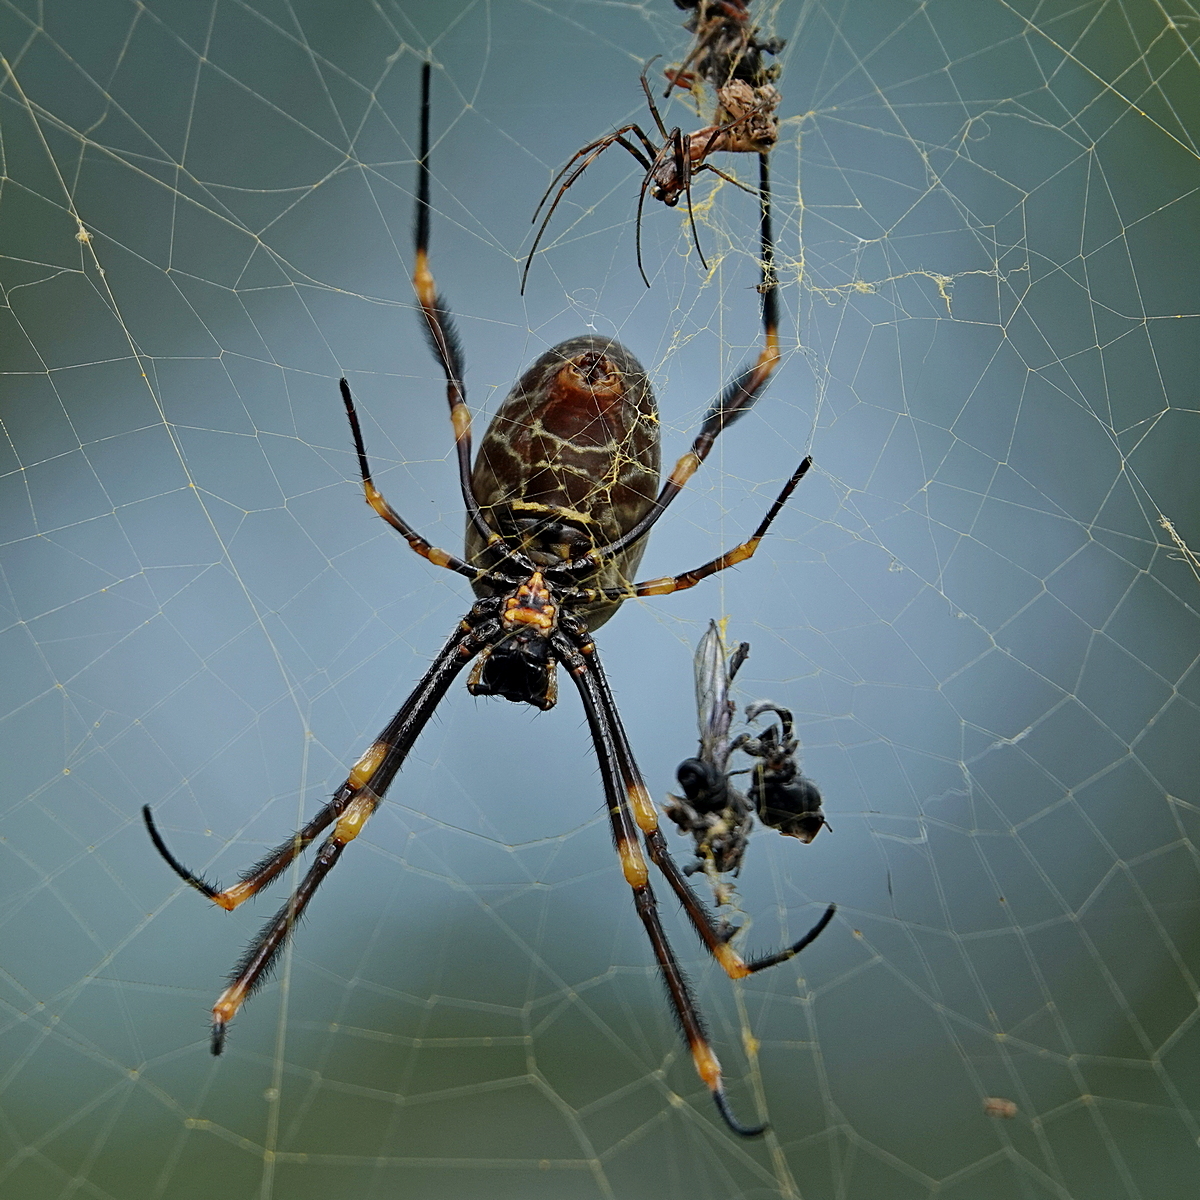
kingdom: Animalia
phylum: Arthropoda
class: Arachnida
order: Araneae
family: Araneidae
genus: Trichonephila
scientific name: Trichonephila plumipes
